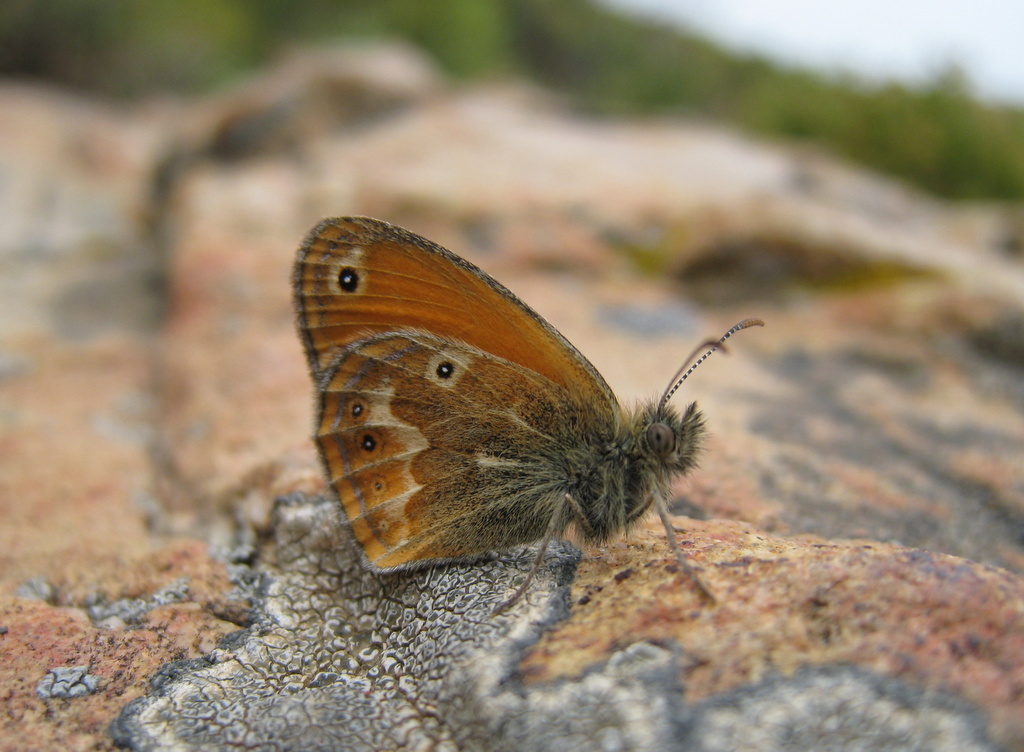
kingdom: Animalia
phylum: Arthropoda
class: Insecta
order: Lepidoptera
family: Nymphalidae
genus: Coenonympha
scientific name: Coenonympha corinna
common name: Corsican heath
